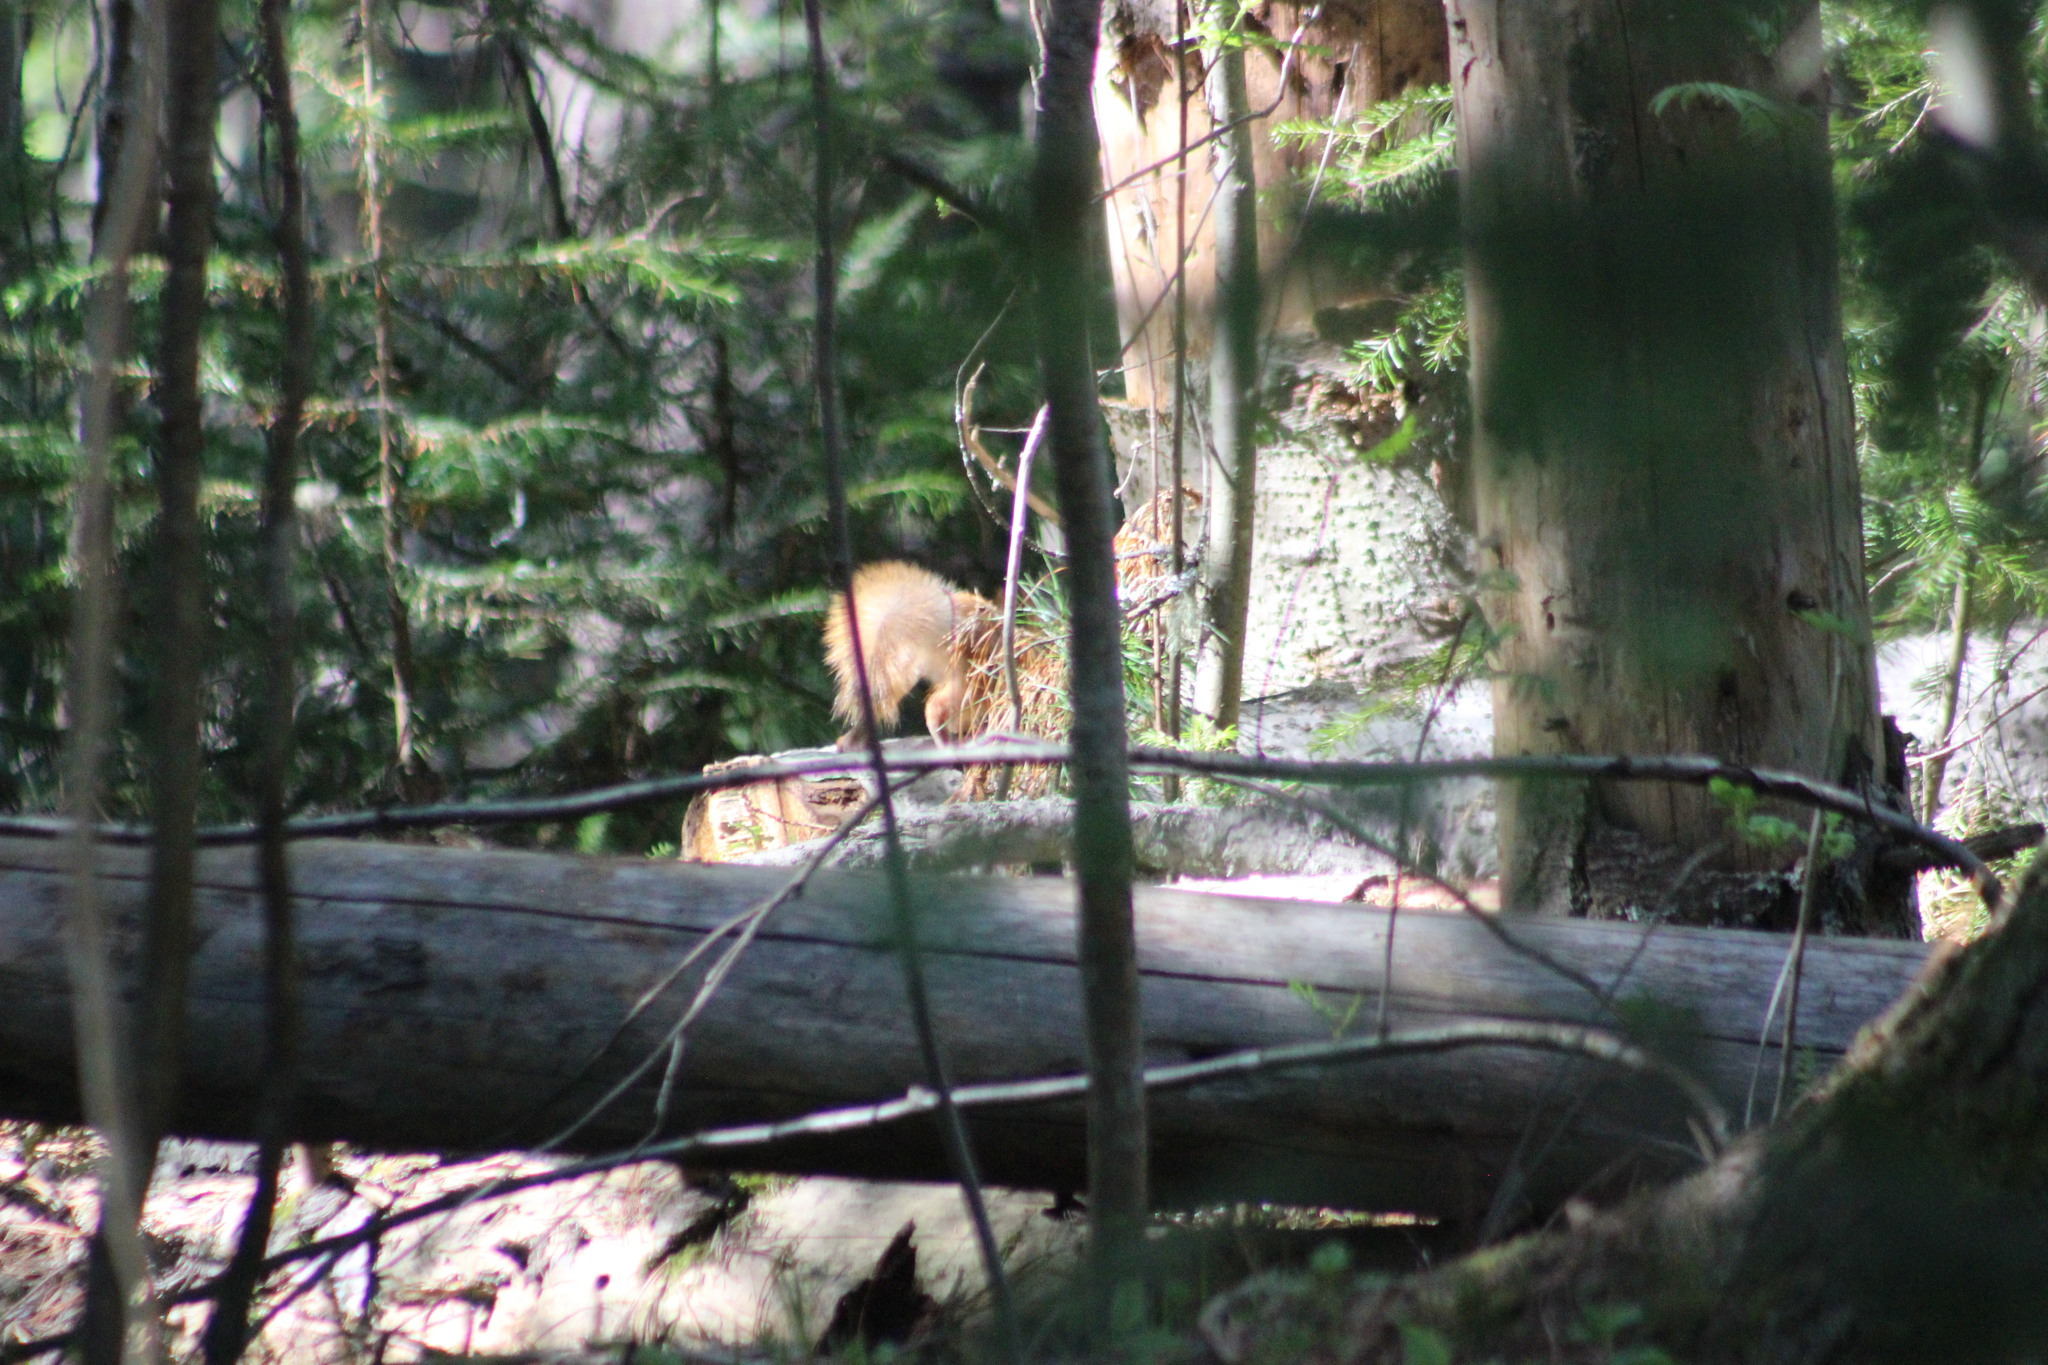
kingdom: Animalia
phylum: Chordata
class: Mammalia
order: Rodentia
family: Sciuridae
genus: Sciurus
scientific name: Sciurus vulgaris
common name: Eurasian red squirrel
